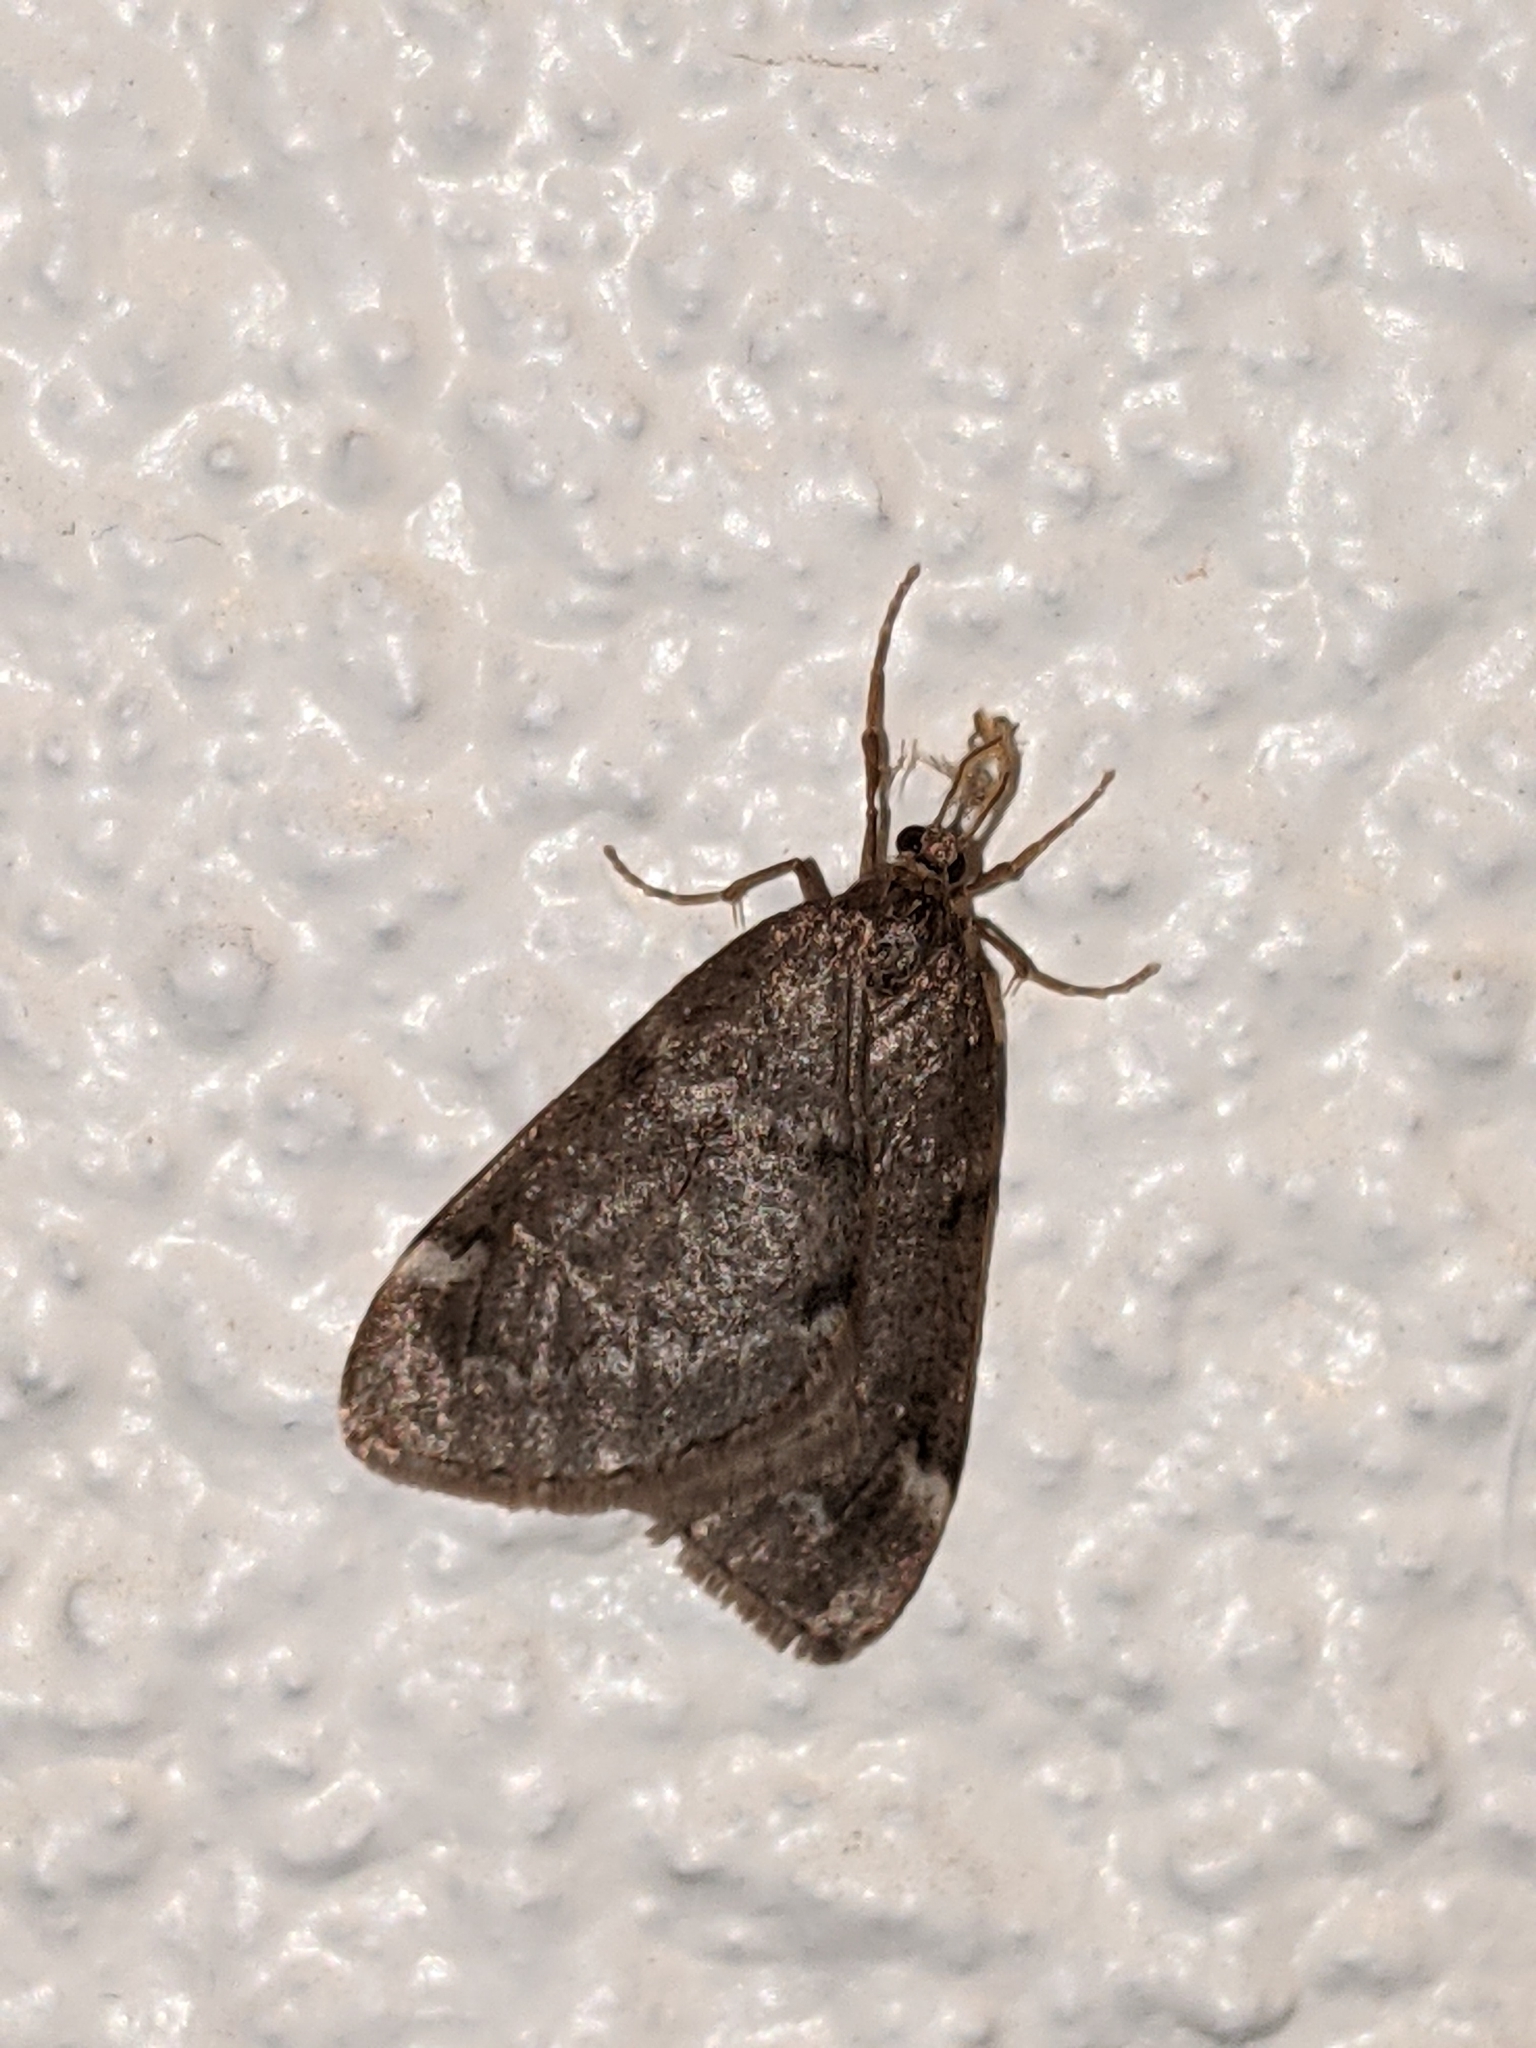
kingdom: Animalia
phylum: Arthropoda
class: Insecta
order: Lepidoptera
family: Geometridae
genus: Alsophila
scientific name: Alsophila pometaria
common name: Fall cankerworm
